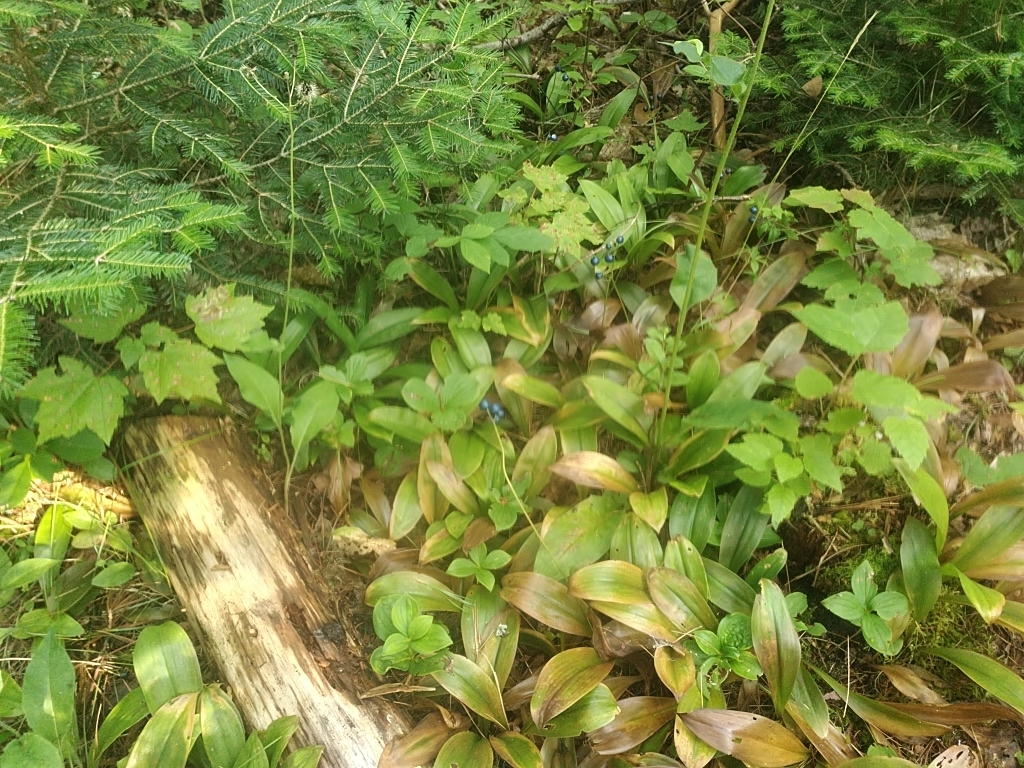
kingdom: Plantae
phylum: Tracheophyta
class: Liliopsida
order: Liliales
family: Liliaceae
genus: Clintonia
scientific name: Clintonia borealis
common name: Yellow clintonia
